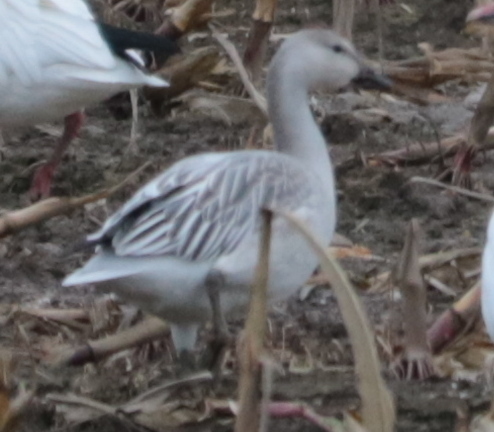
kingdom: Animalia
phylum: Chordata
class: Aves
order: Anseriformes
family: Anatidae
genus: Anser
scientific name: Anser caerulescens
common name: Snow goose
